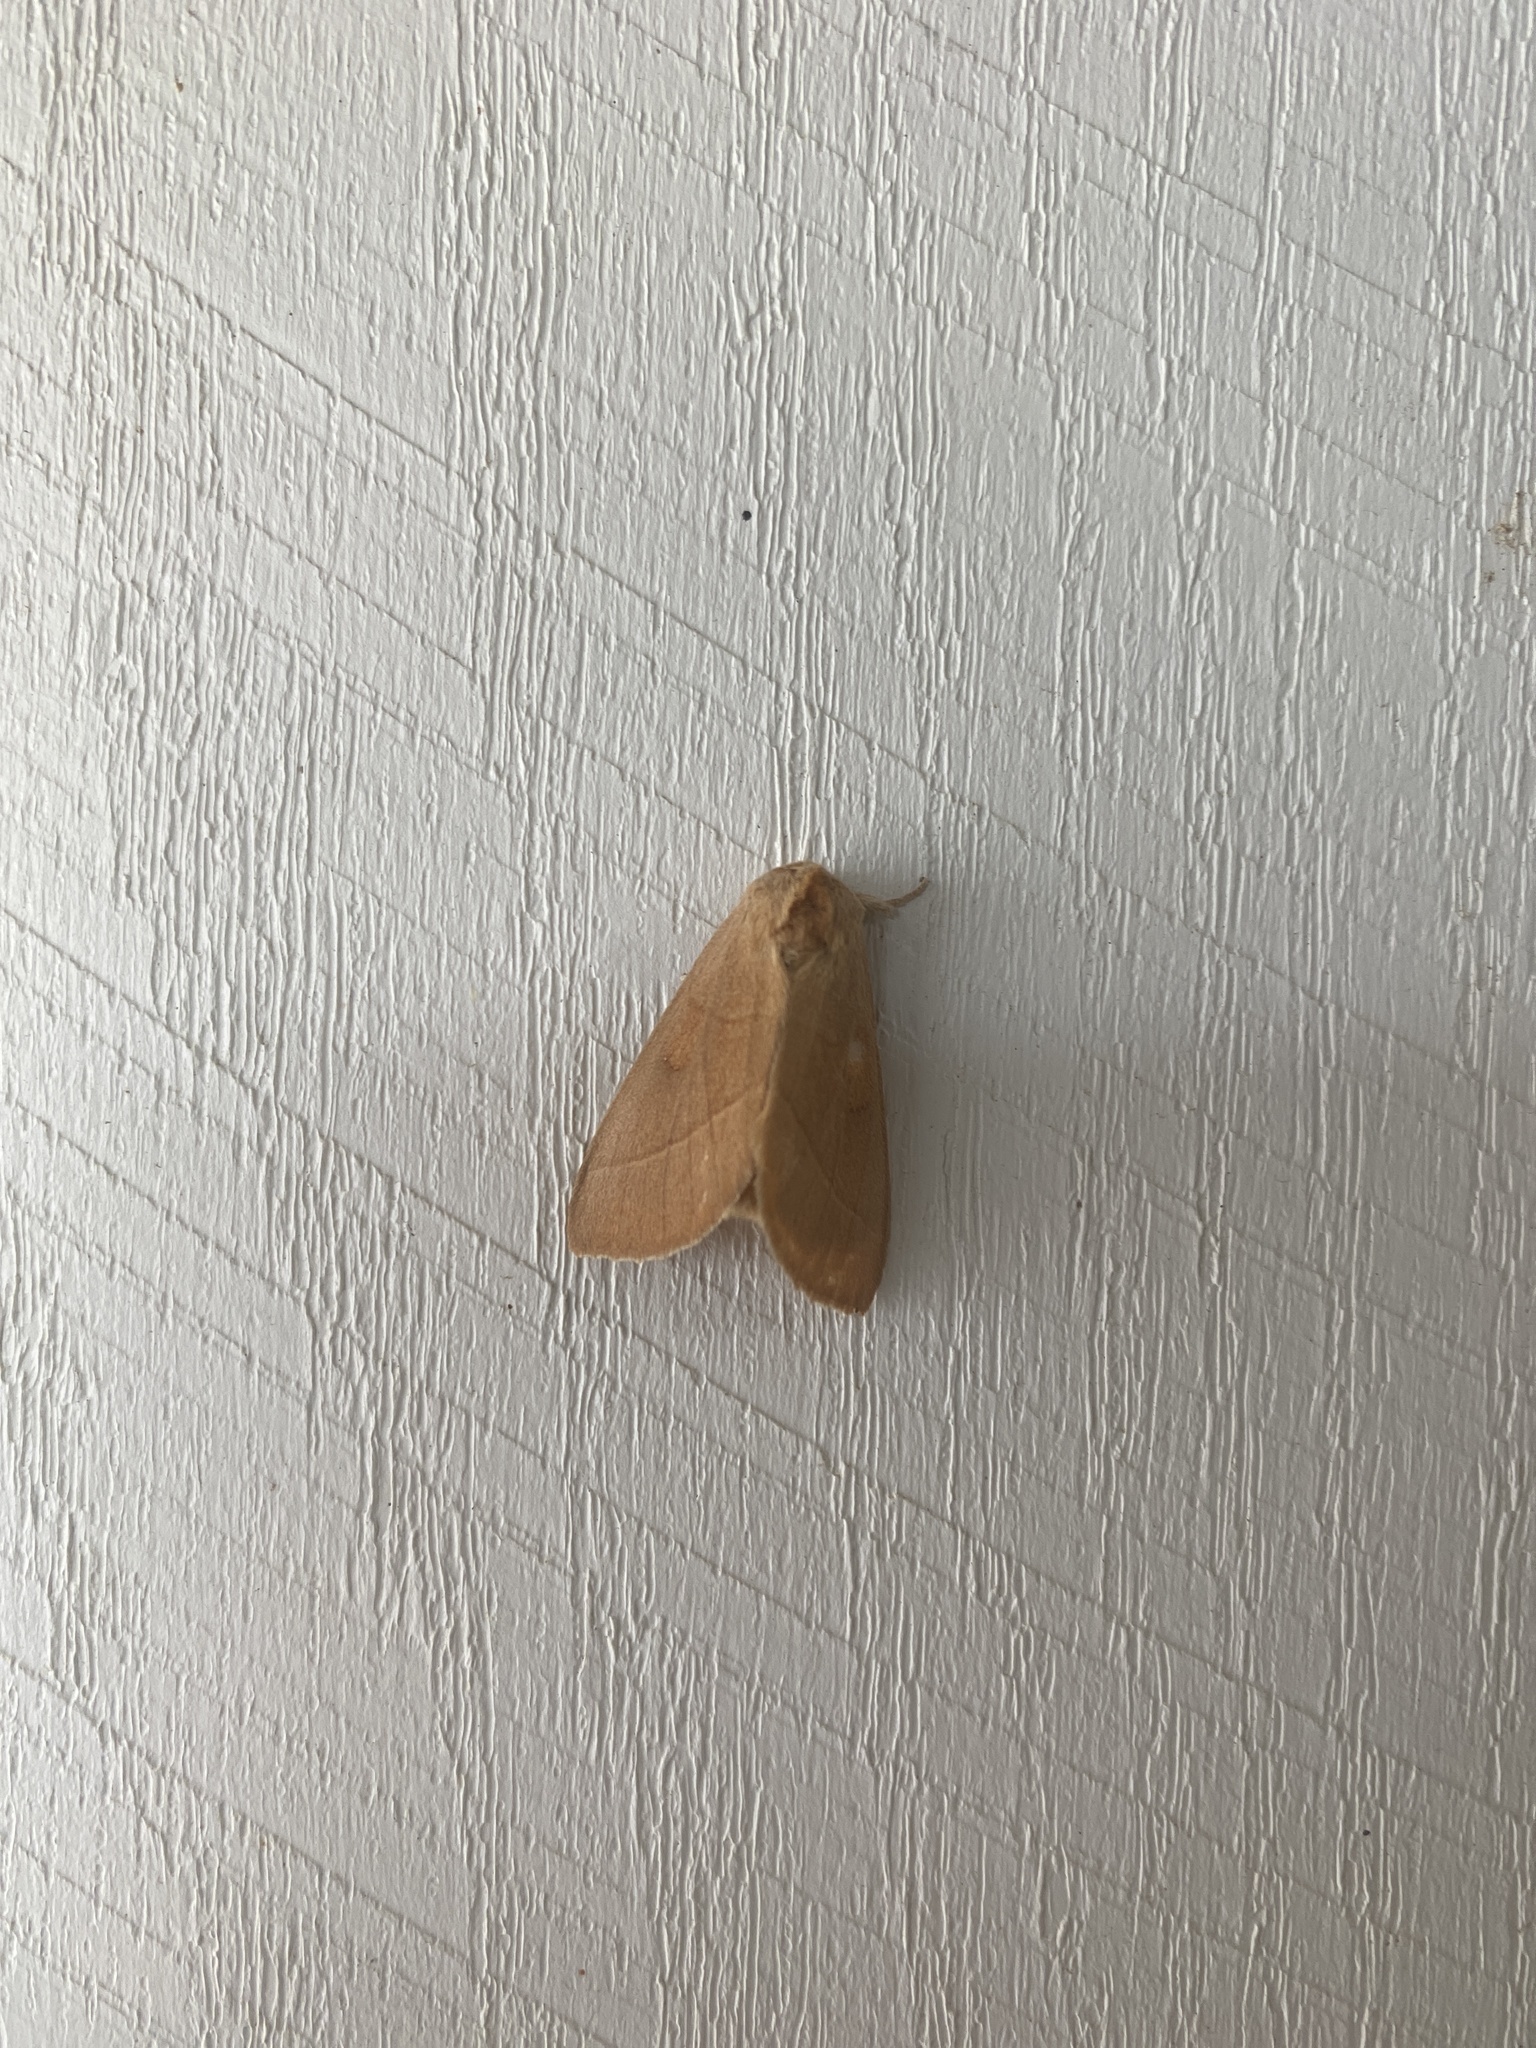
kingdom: Animalia
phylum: Arthropoda
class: Insecta
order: Lepidoptera
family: Notodontidae
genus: Nadata
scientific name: Nadata gibbosa
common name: White-dotted prominent
